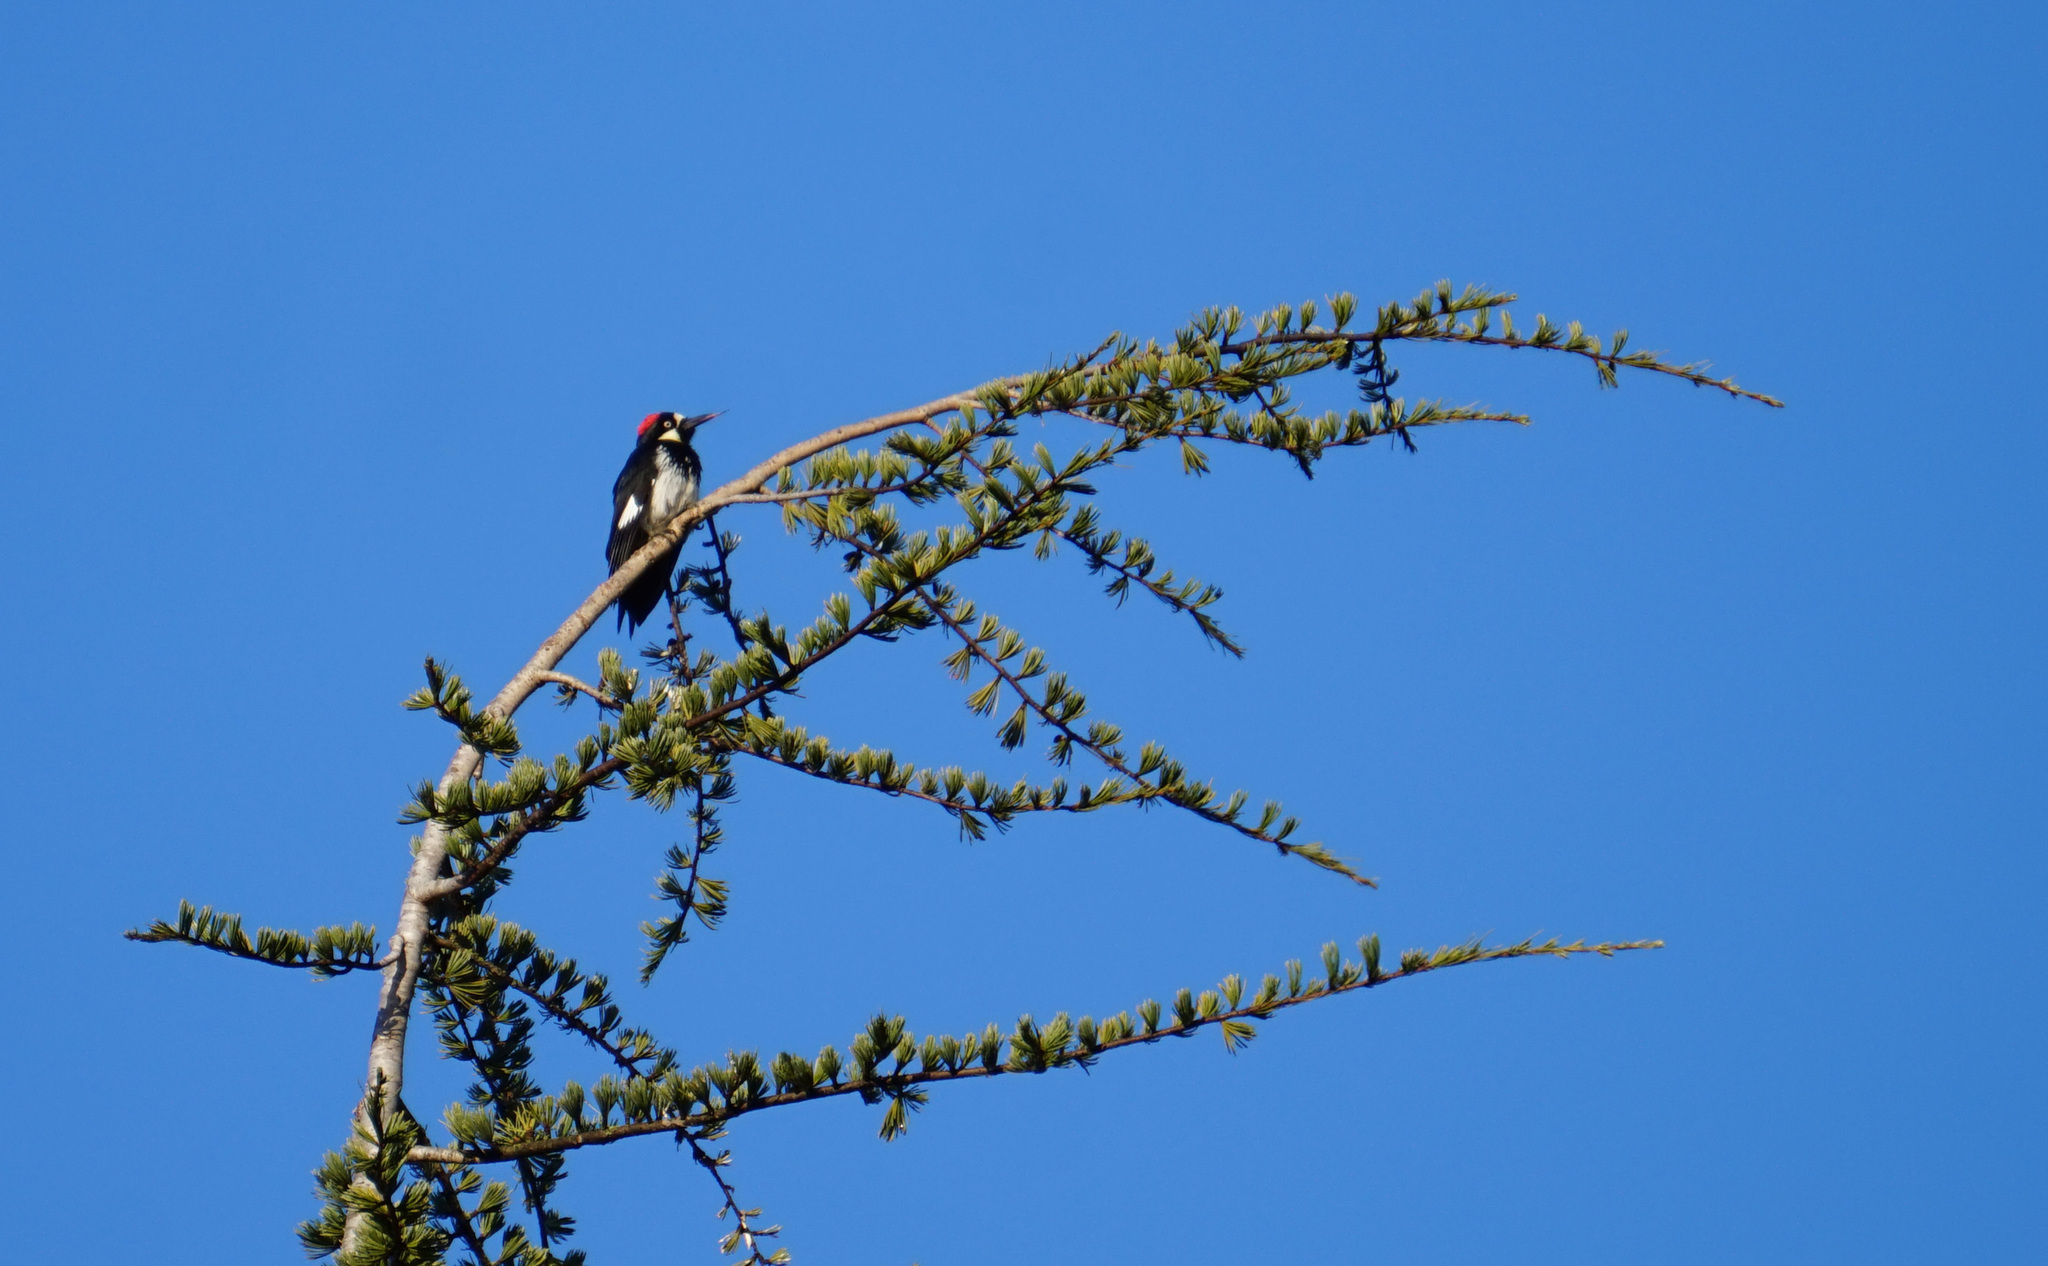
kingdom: Animalia
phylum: Chordata
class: Aves
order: Piciformes
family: Picidae
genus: Melanerpes
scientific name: Melanerpes formicivorus
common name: Acorn woodpecker
